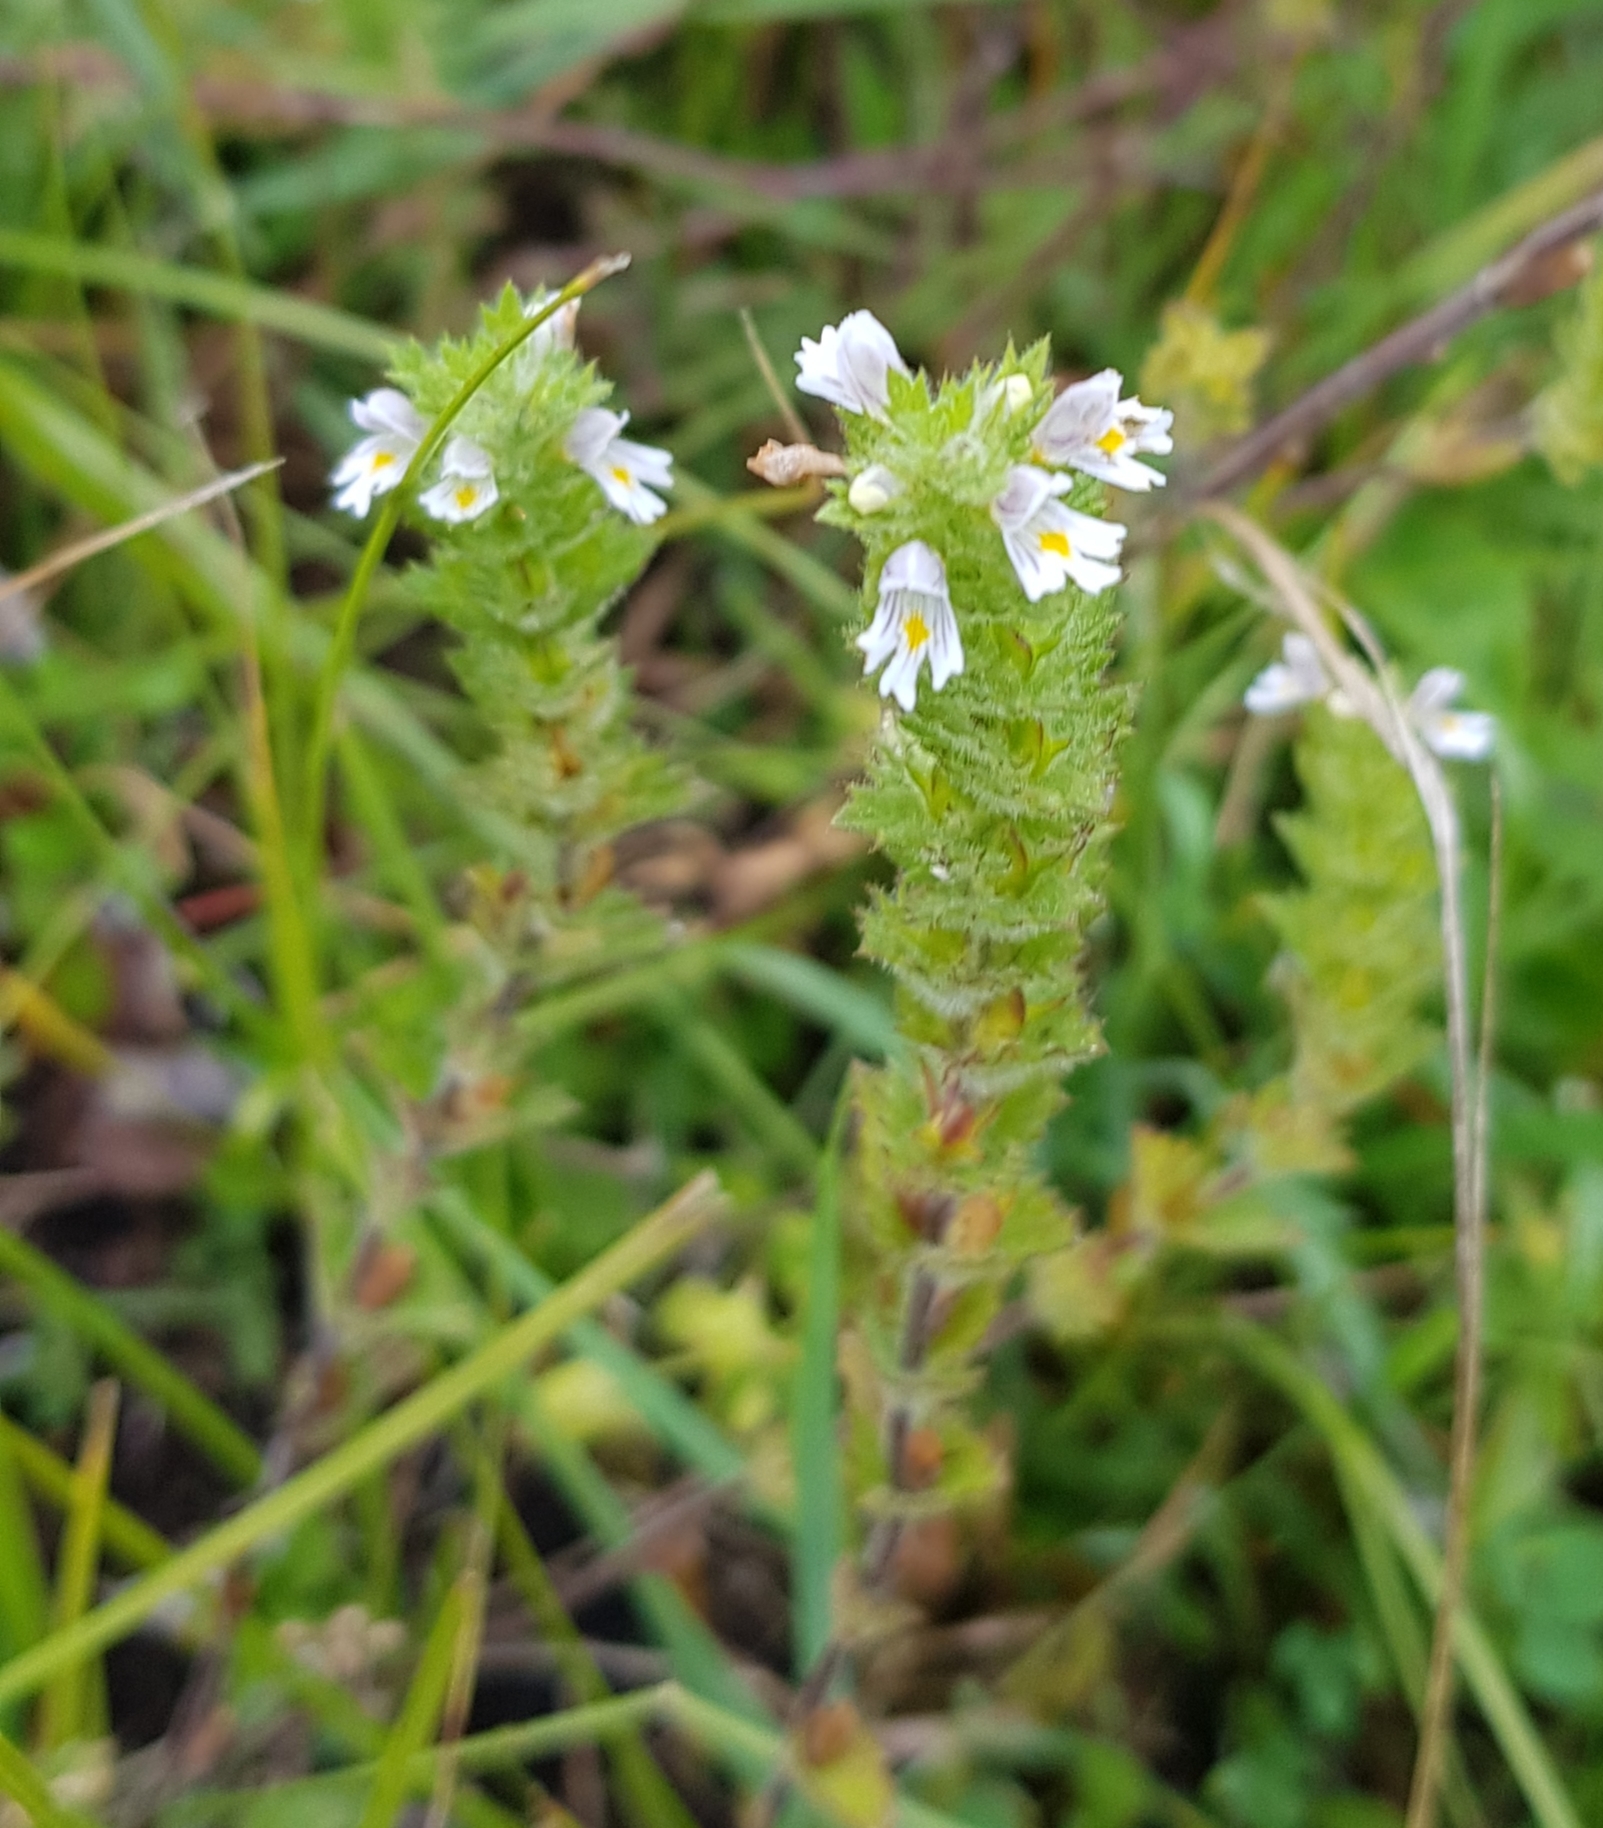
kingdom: Plantae
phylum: Tracheophyta
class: Magnoliopsida
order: Lamiales
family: Orobanchaceae
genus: Euphrasia
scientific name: Euphrasia pectinata
